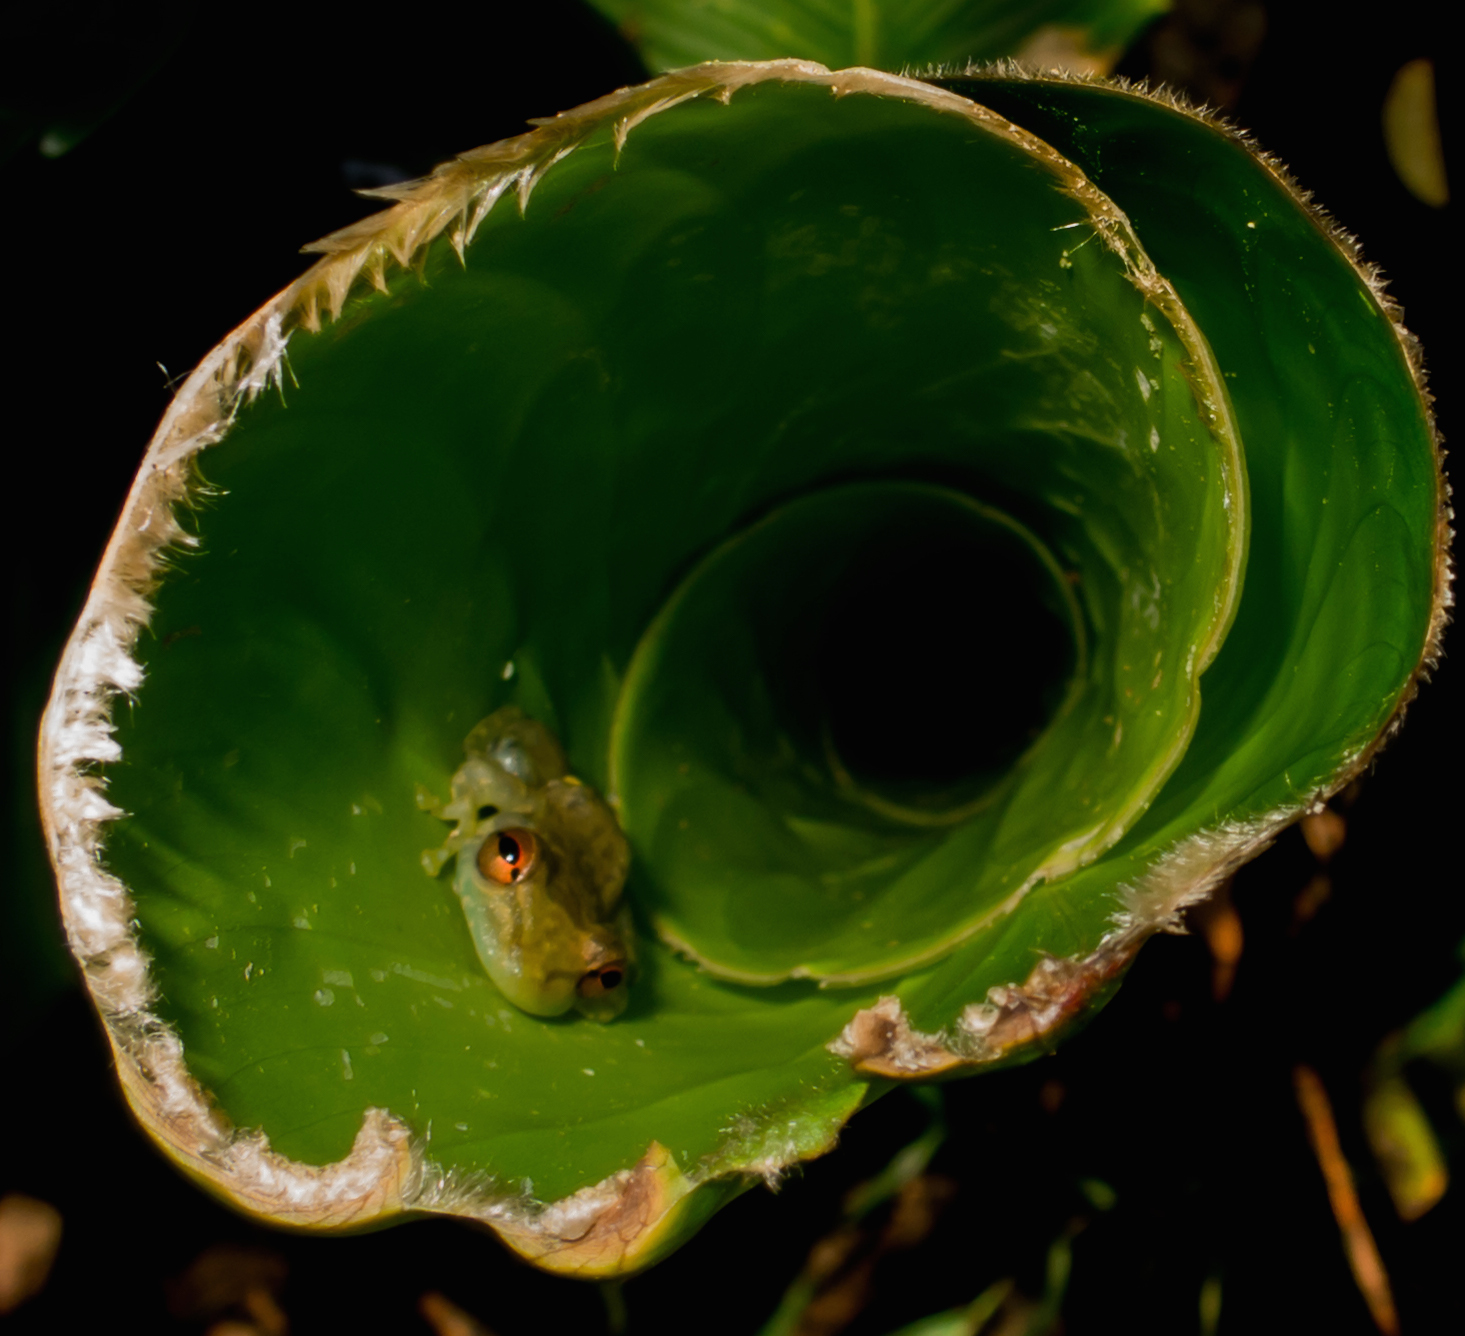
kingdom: Animalia
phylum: Chordata
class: Amphibia
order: Anura
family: Hylidae
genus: Scinax
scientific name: Scinax elaeochroa
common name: Sipurio snouted treefrog
